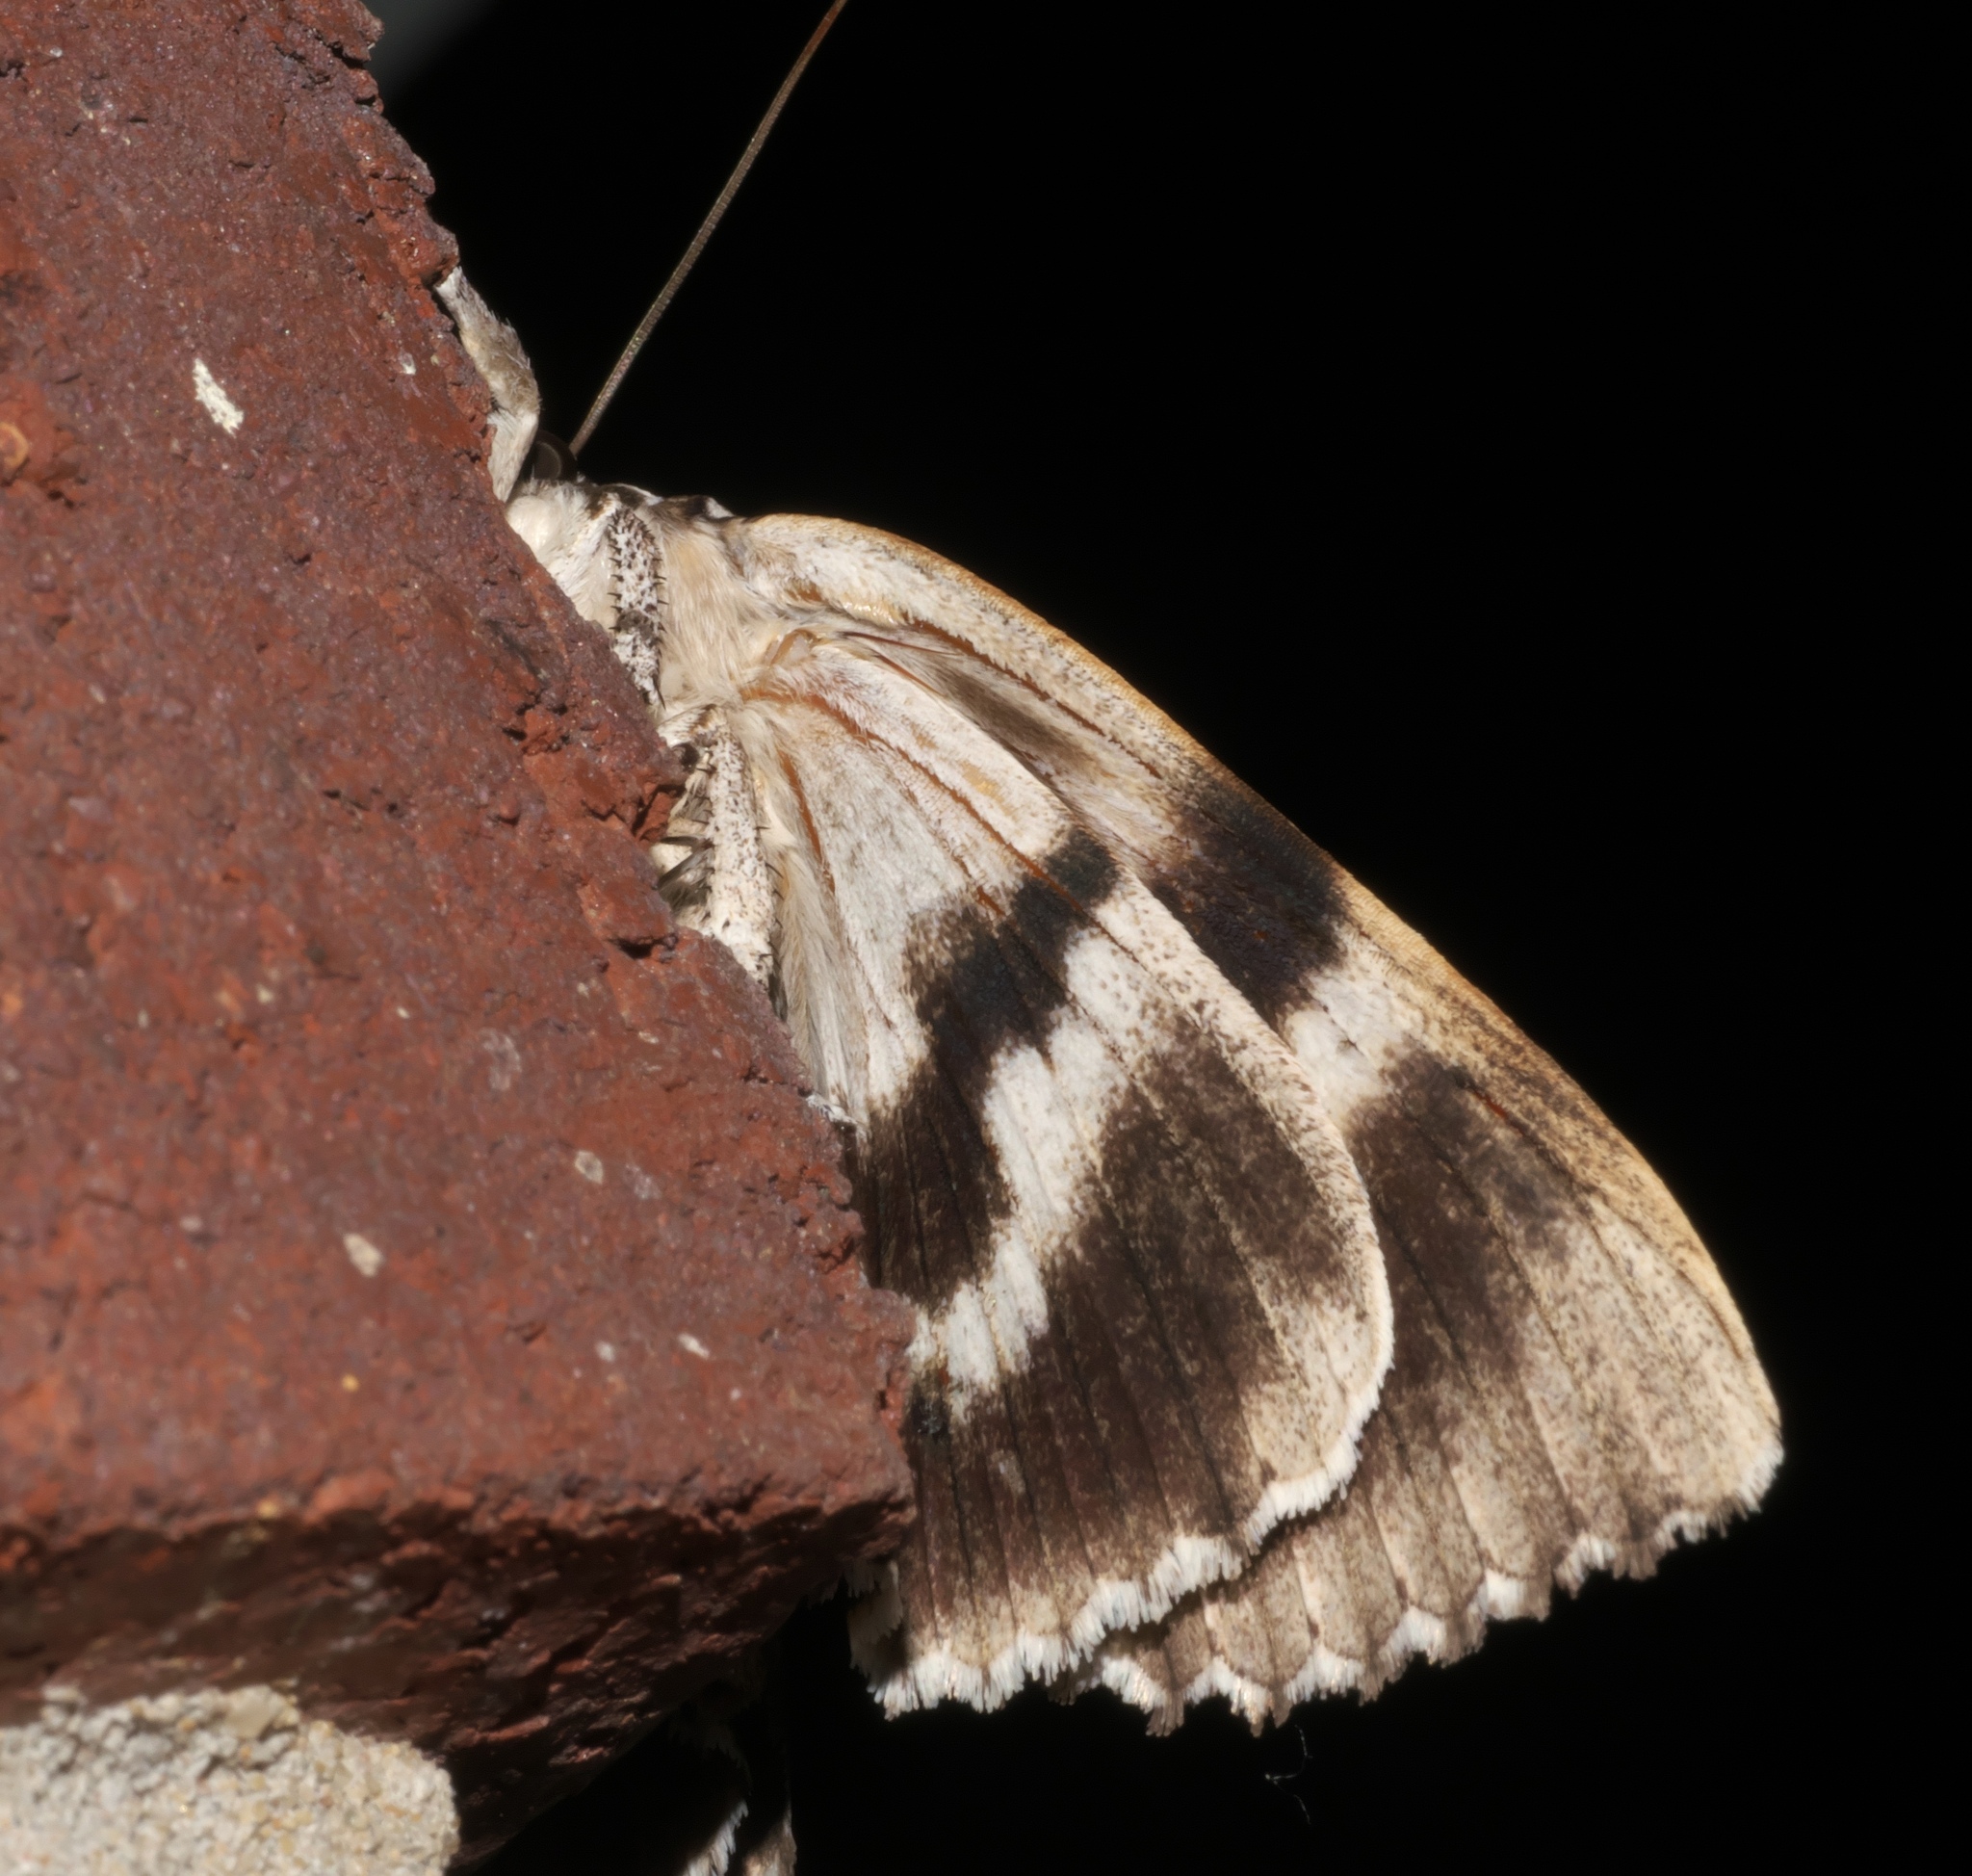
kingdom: Animalia
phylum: Arthropoda
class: Insecta
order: Lepidoptera
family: Erebidae
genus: Catocala
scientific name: Catocala maestosa
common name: Sad underwing
